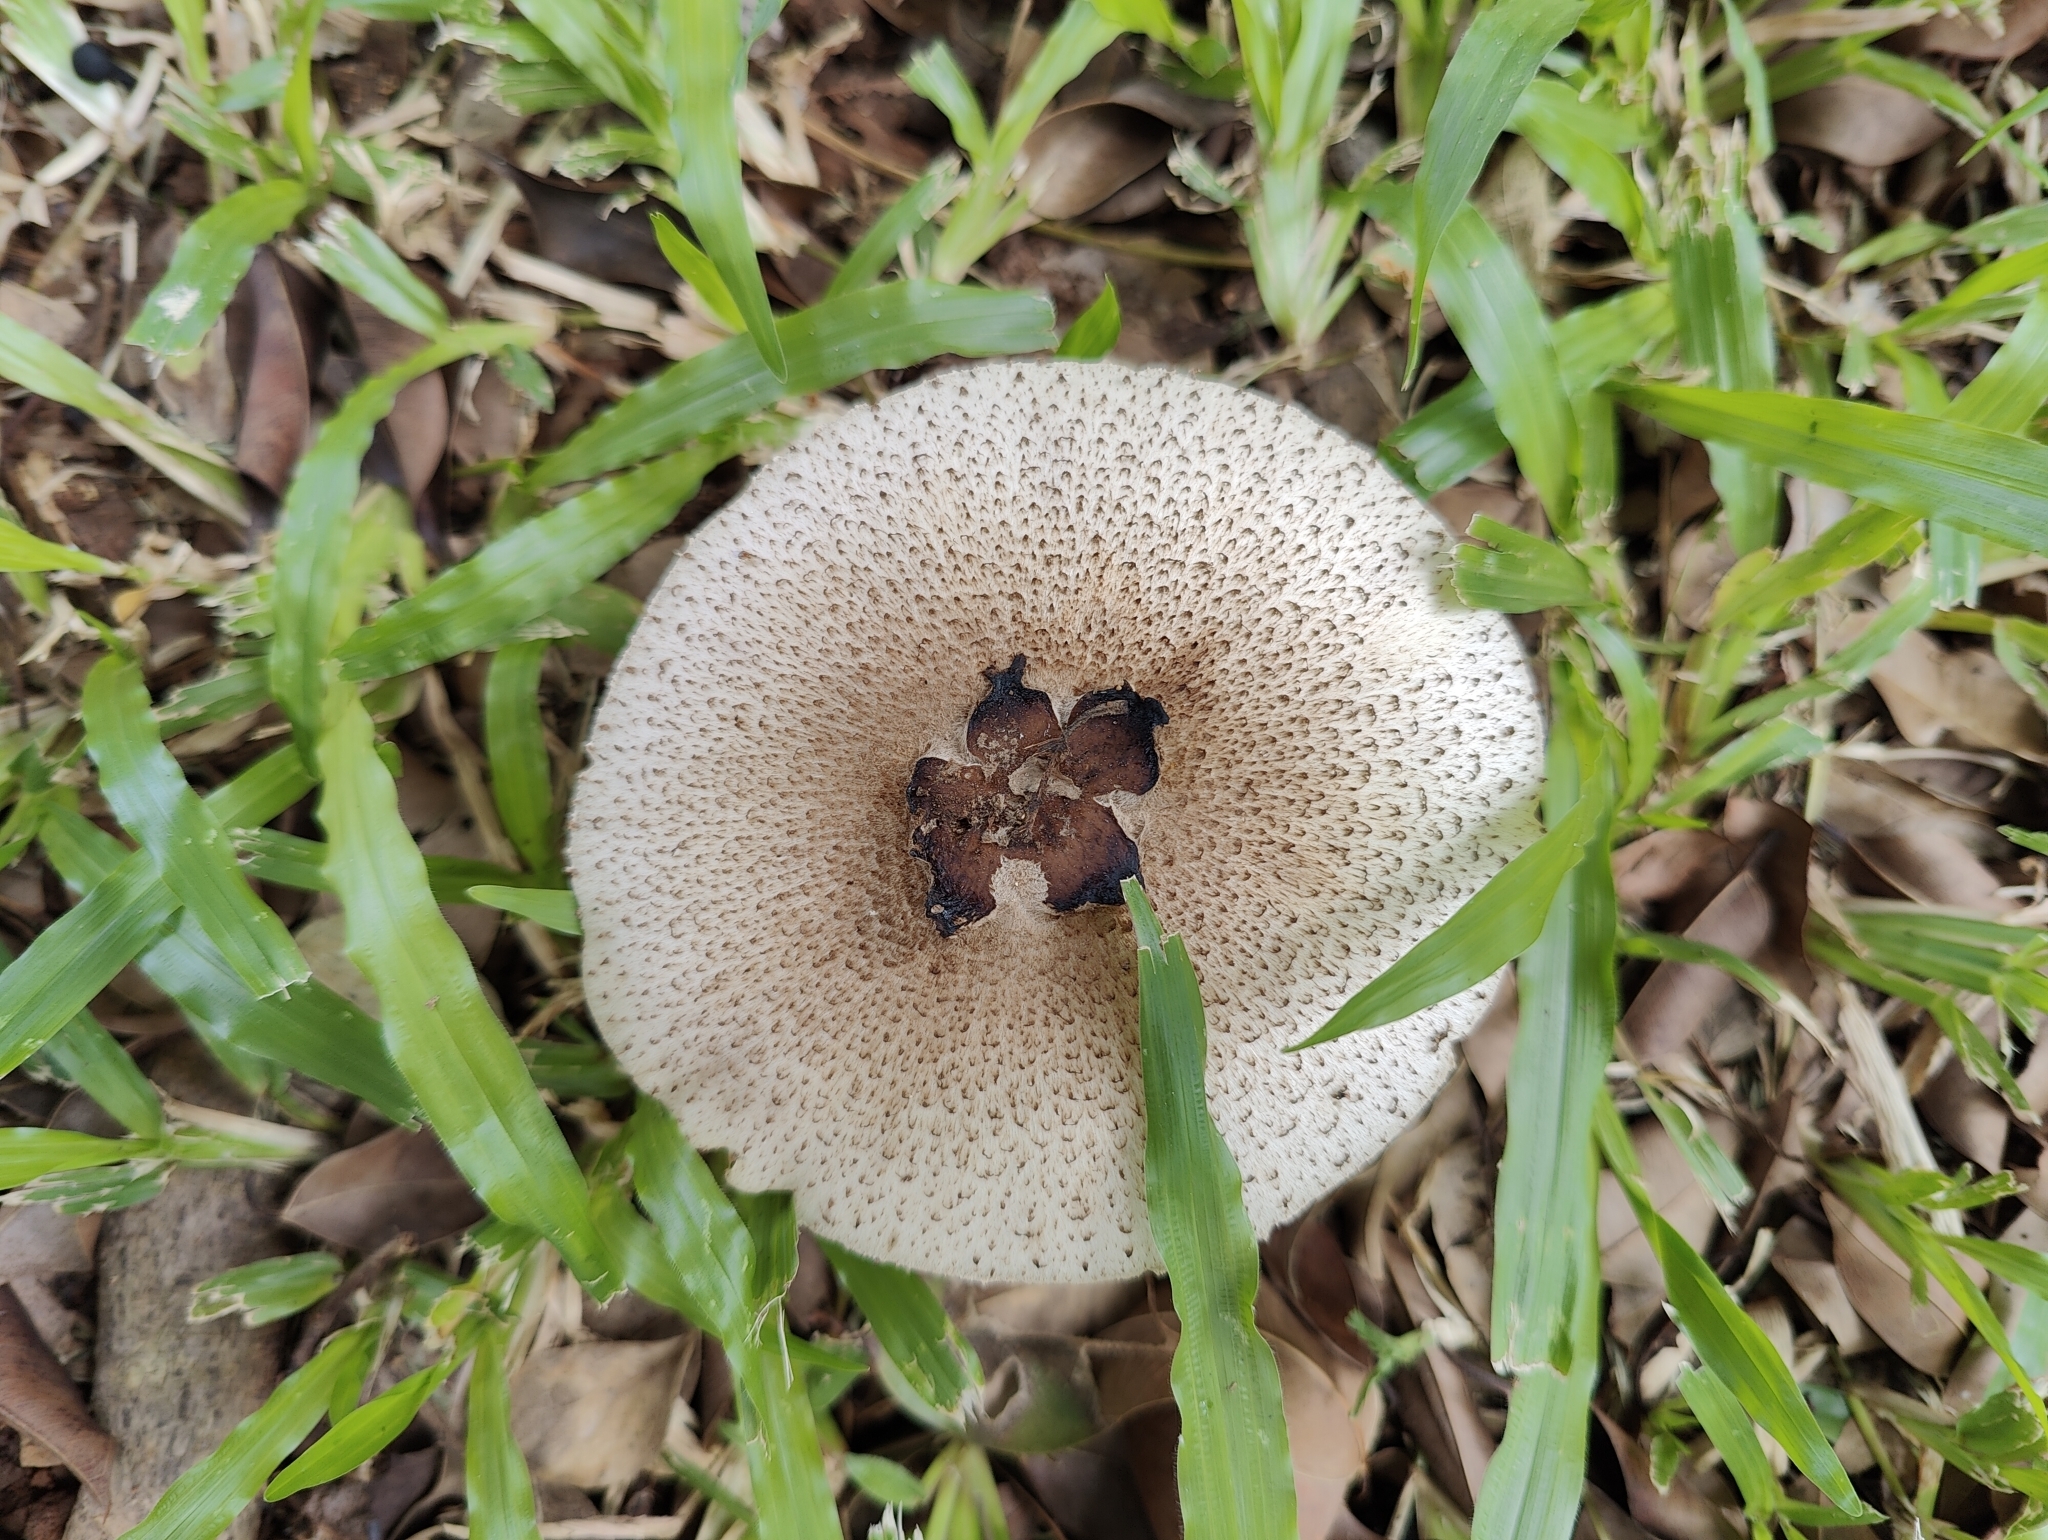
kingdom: Fungi
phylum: Basidiomycota
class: Agaricomycetes
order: Agaricales
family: Agaricaceae
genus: Clarkeinda
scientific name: Clarkeinda trachodes
